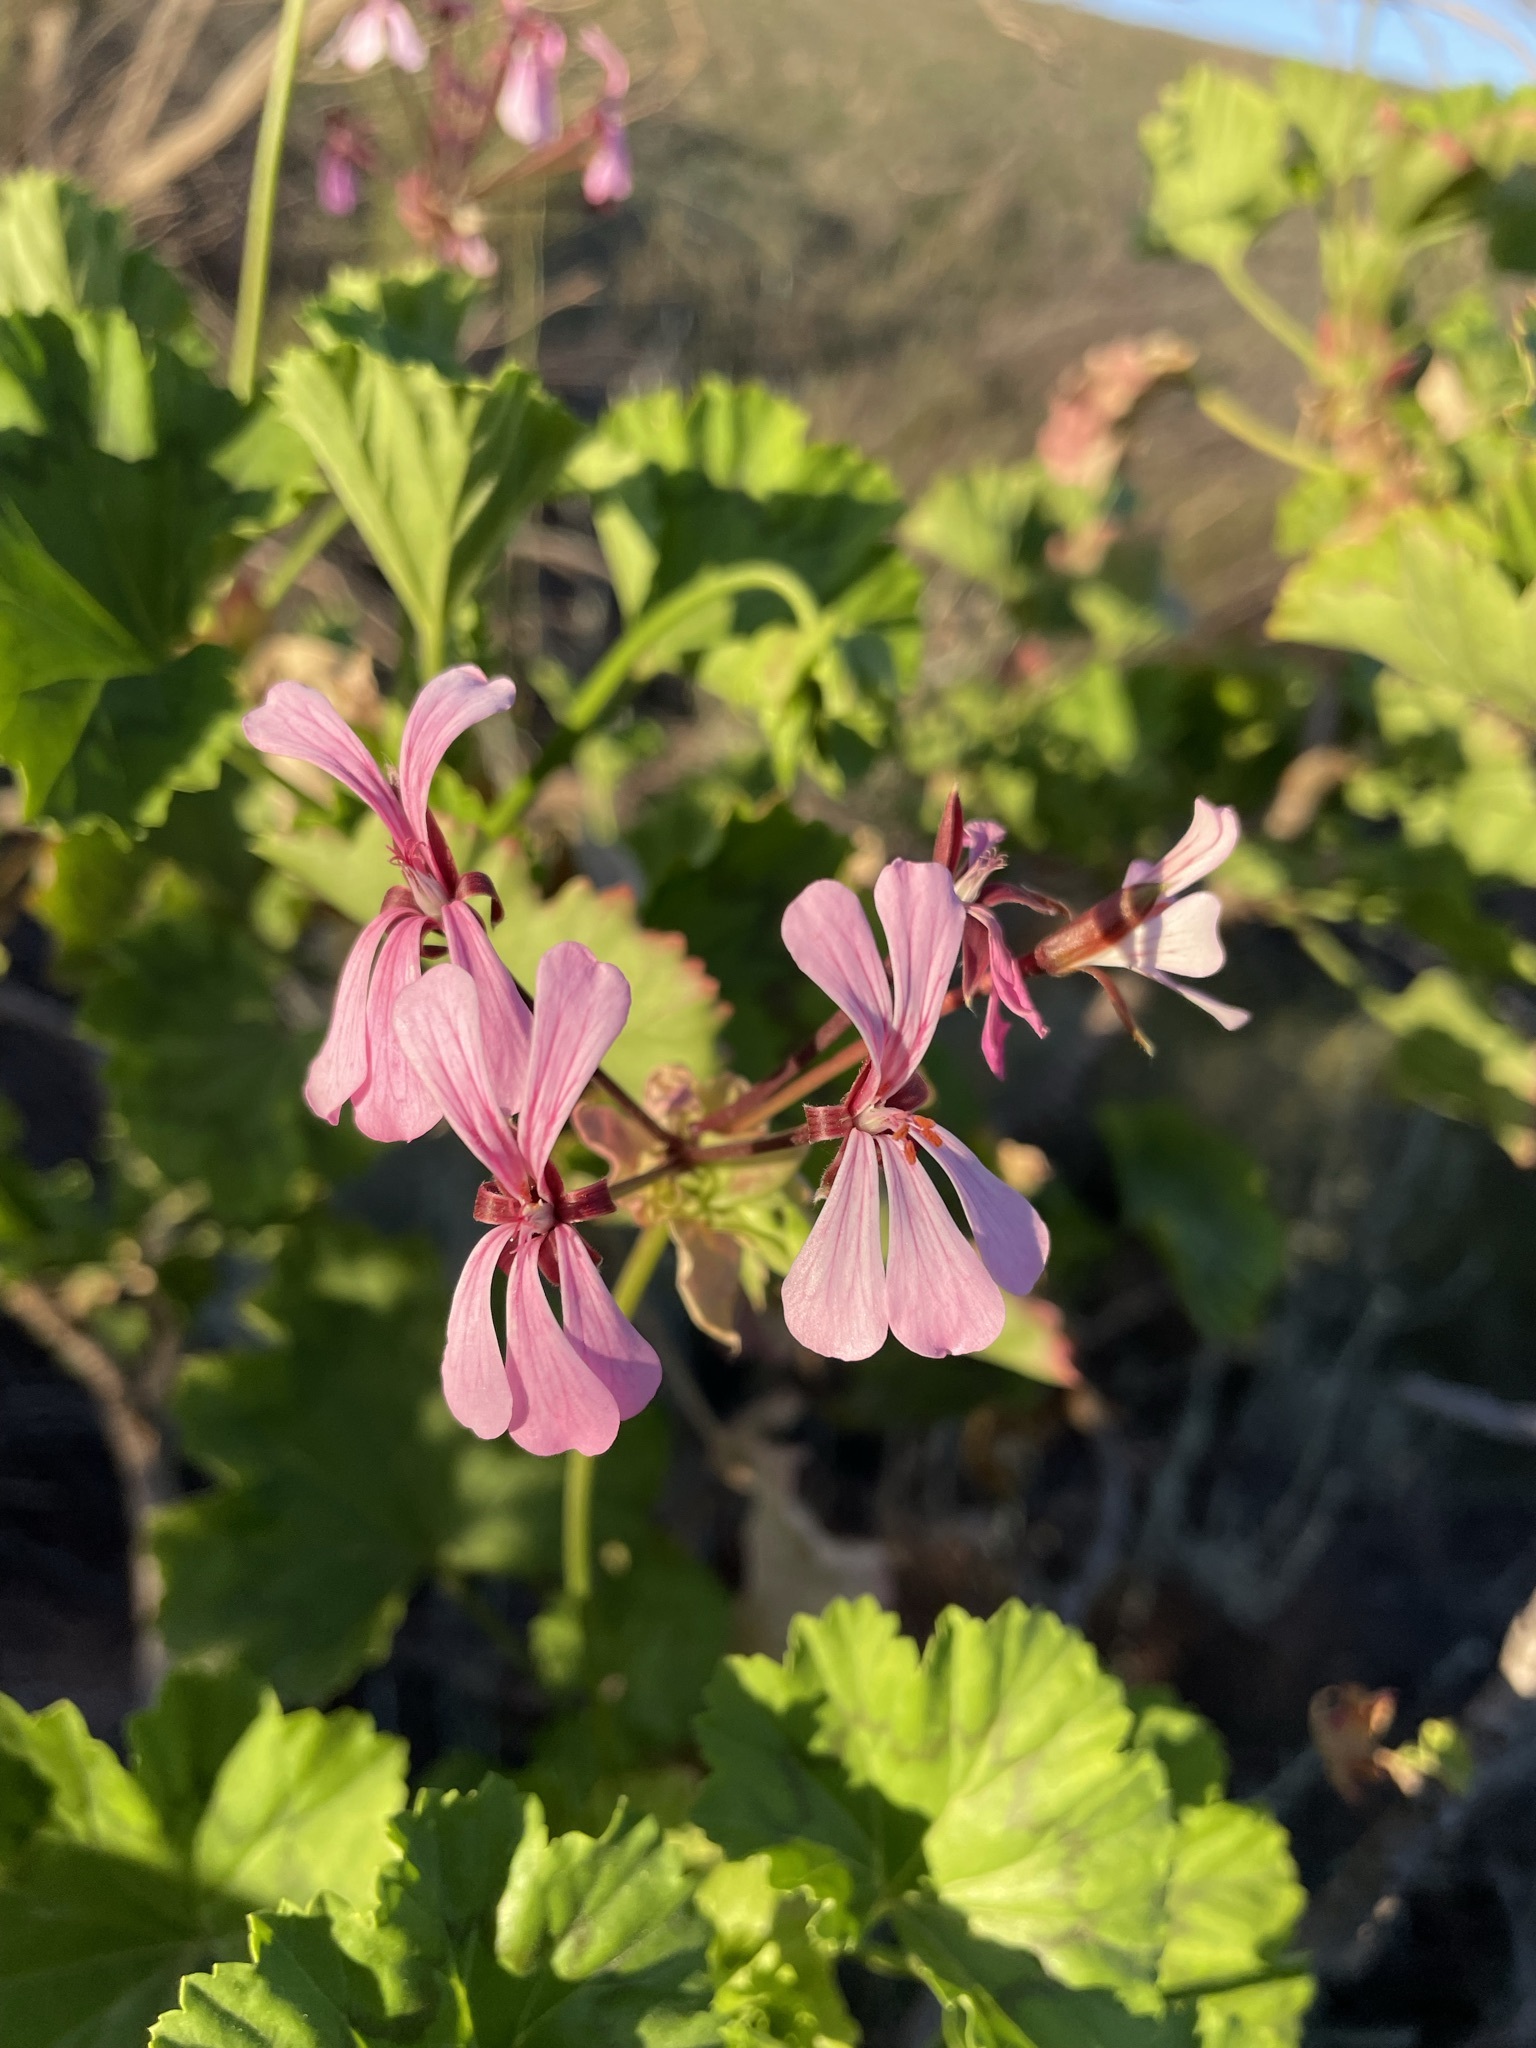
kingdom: Plantae
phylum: Tracheophyta
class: Magnoliopsida
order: Geraniales
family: Geraniaceae
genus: Pelargonium
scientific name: Pelargonium zonale
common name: Horseshoe geranium
